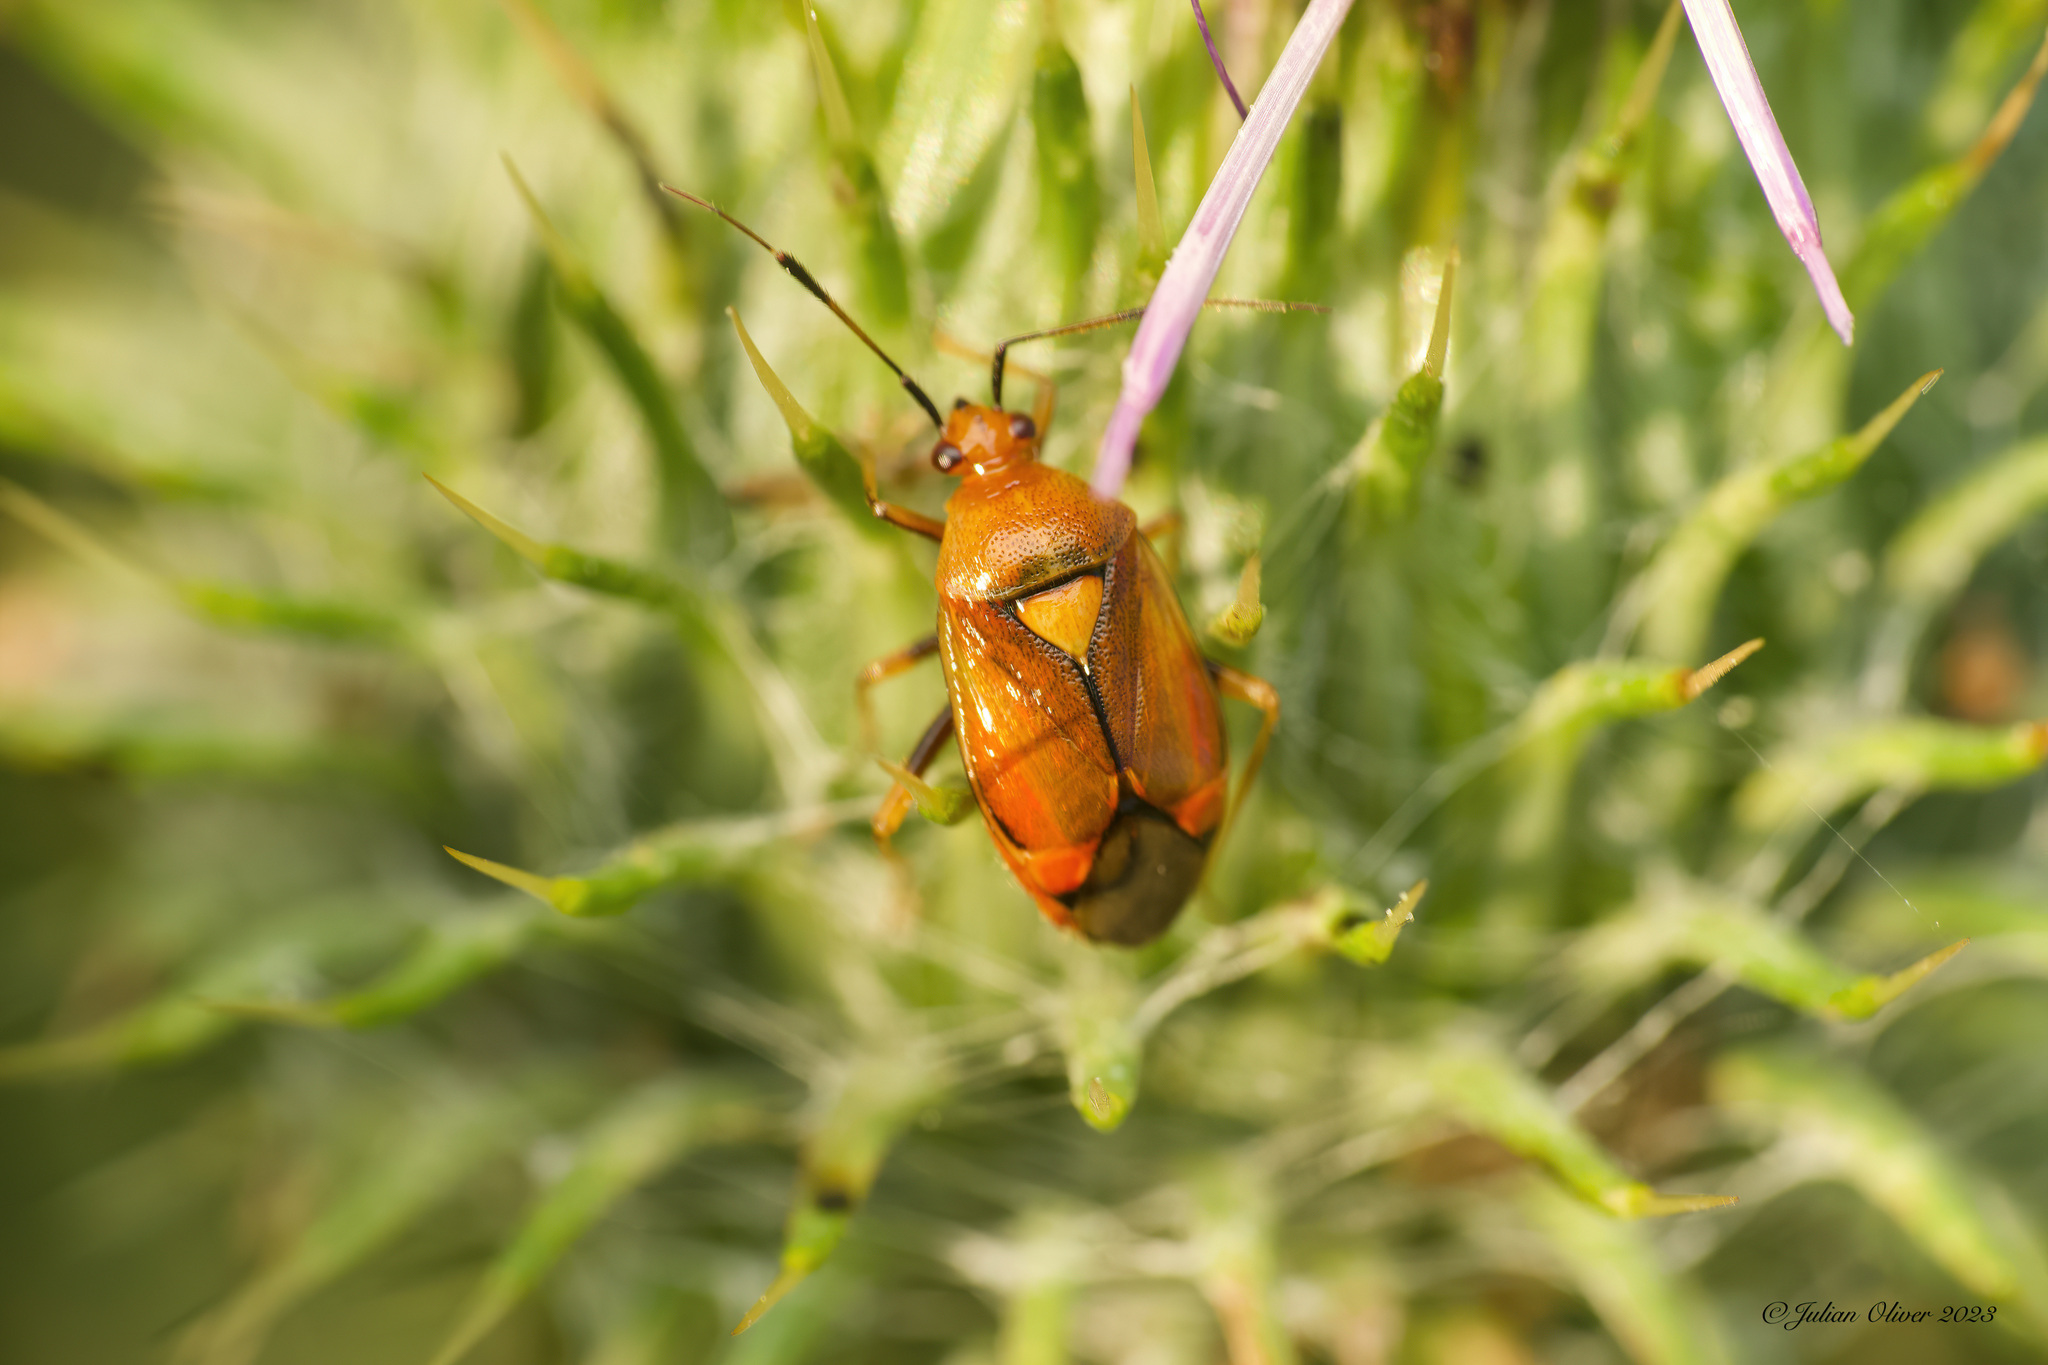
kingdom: Animalia
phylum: Arthropoda
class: Insecta
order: Hemiptera
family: Miridae
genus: Deraeocoris
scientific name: Deraeocoris ruber
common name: Plant bug
